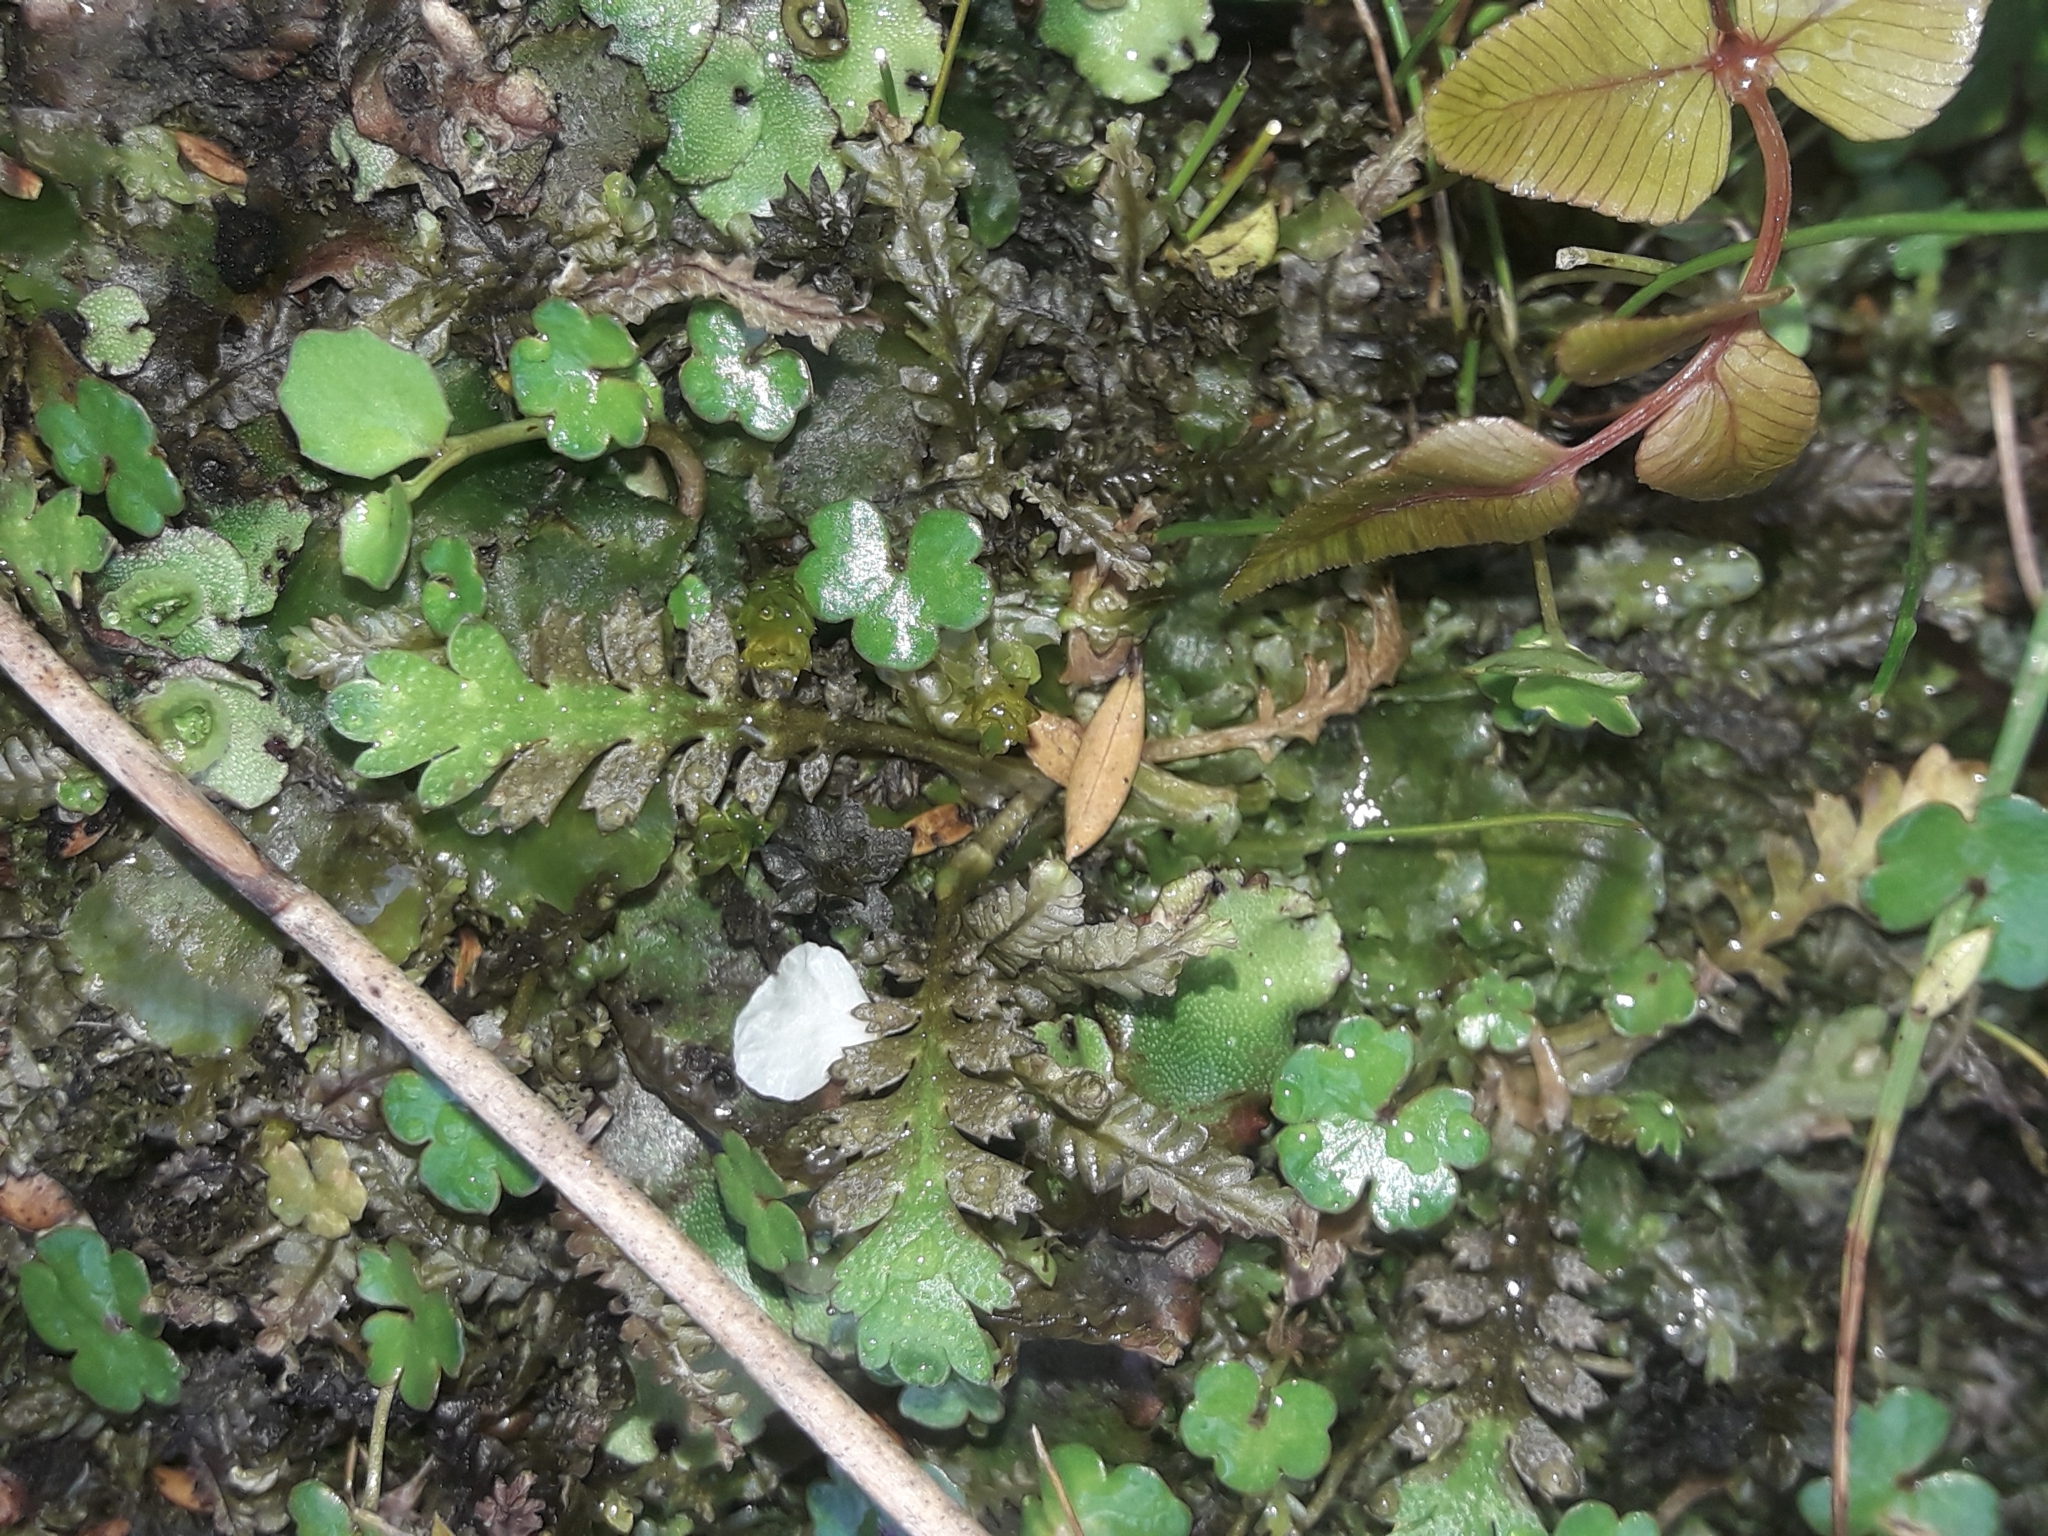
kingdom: Plantae
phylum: Tracheophyta
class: Magnoliopsida
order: Asterales
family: Asteraceae
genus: Leptinella
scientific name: Leptinella squalida
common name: New zealand brass-buttons
